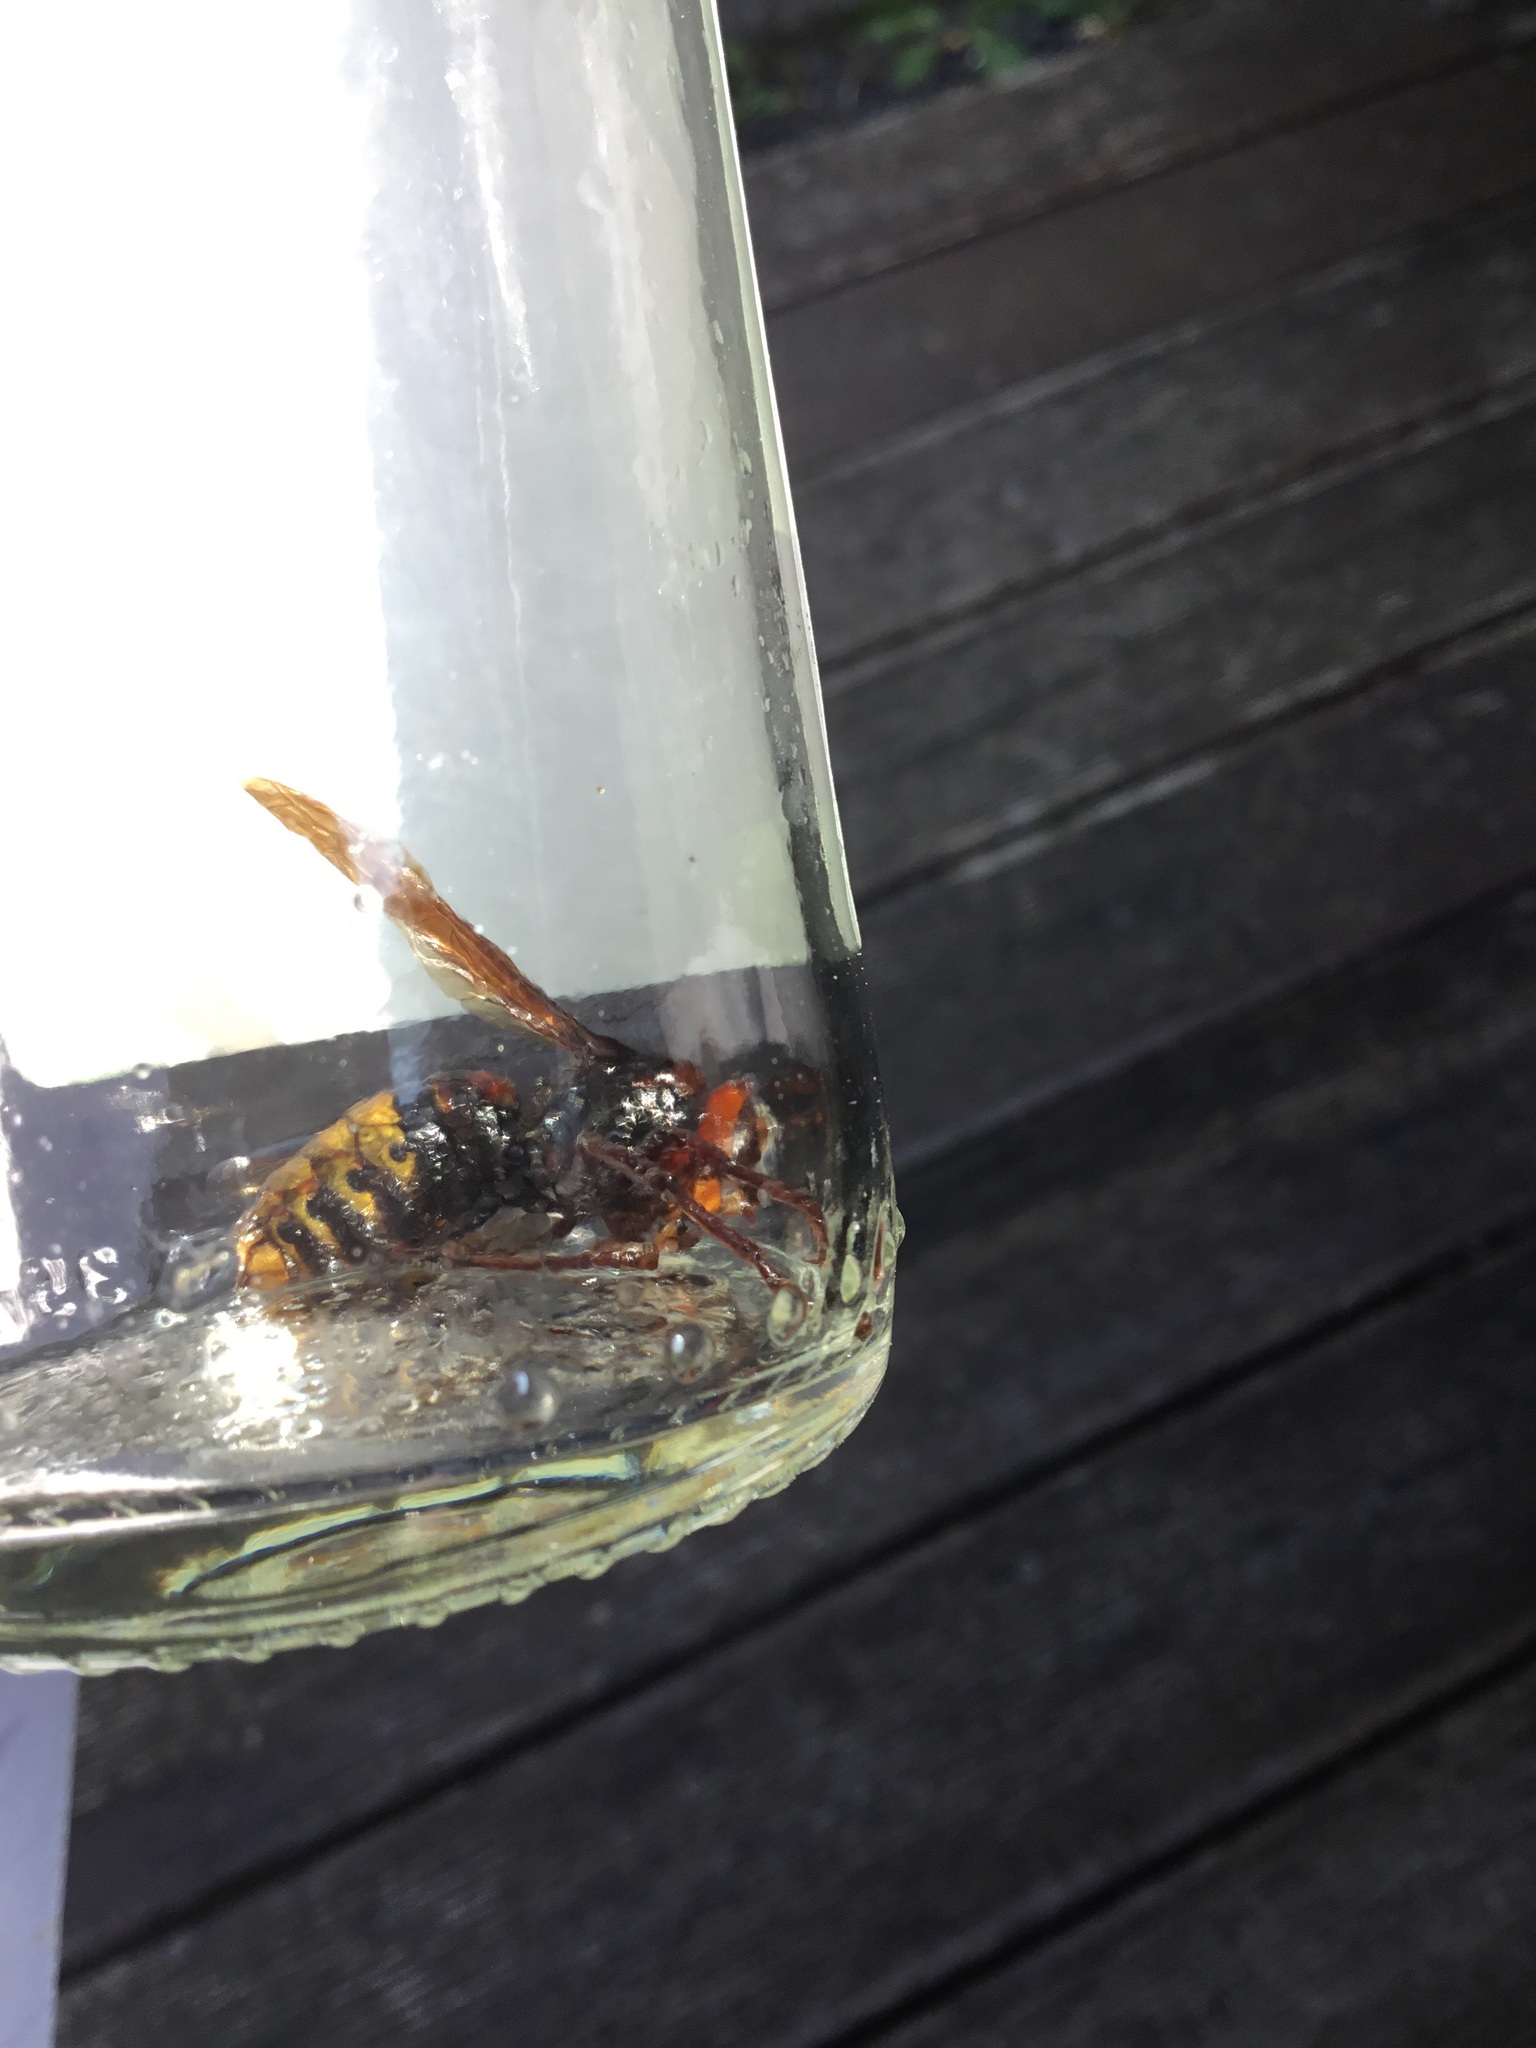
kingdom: Animalia
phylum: Arthropoda
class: Insecta
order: Hymenoptera
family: Vespidae
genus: Vespa
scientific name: Vespa crabro
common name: Hornet
